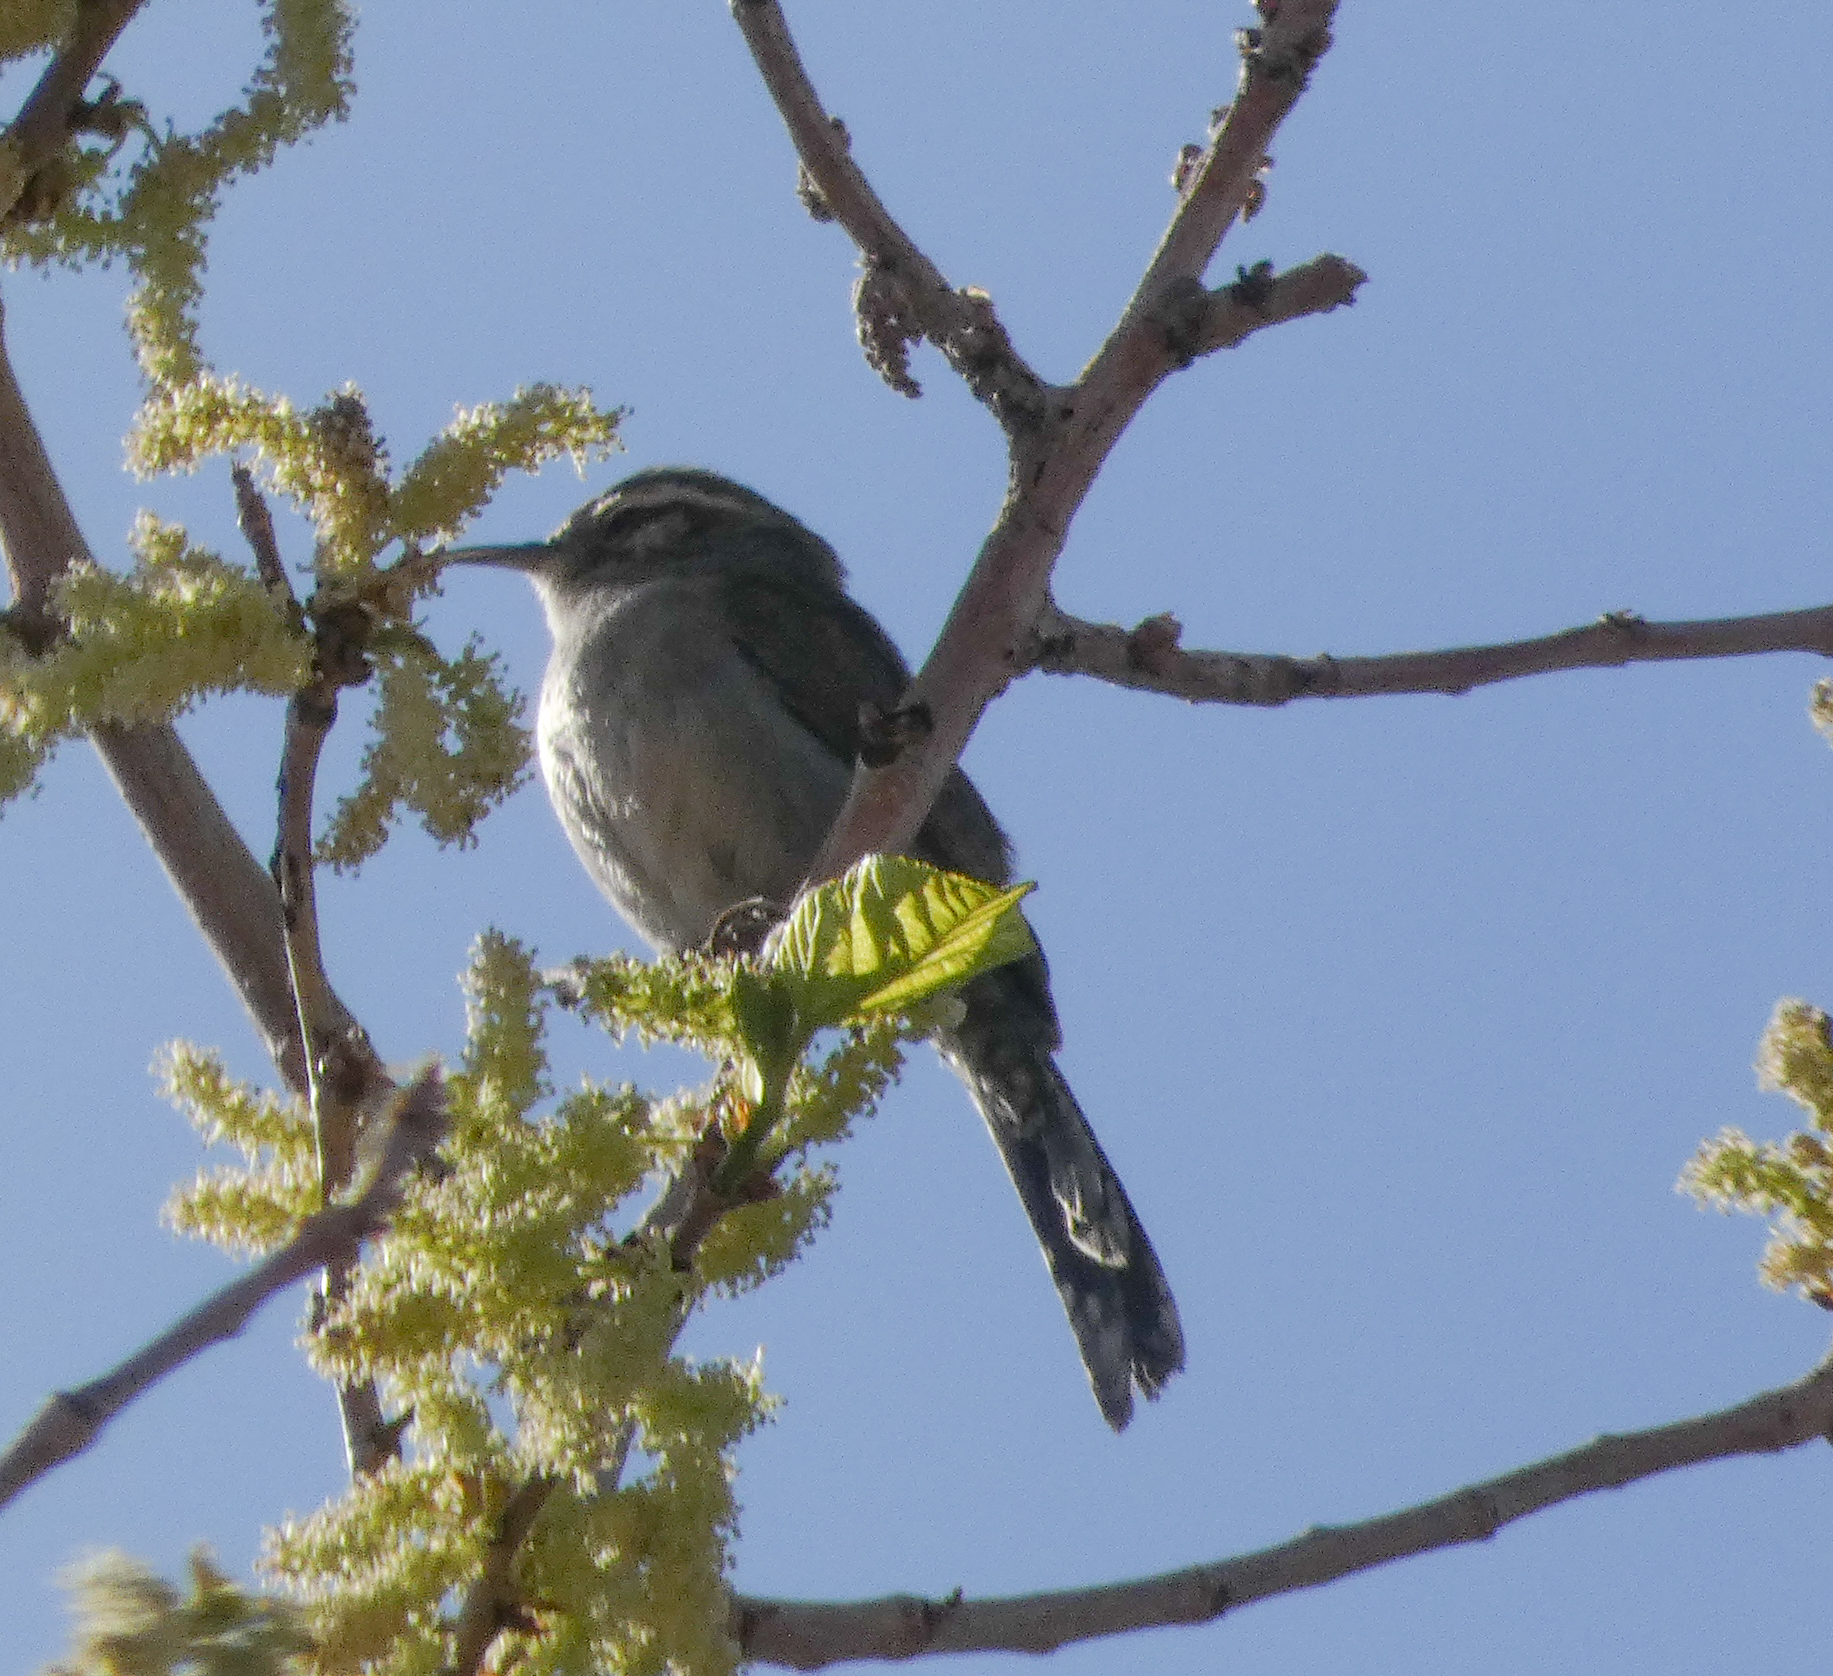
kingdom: Animalia
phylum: Chordata
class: Aves
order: Passeriformes
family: Troglodytidae
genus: Thryomanes
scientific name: Thryomanes bewickii
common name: Bewick's wren
